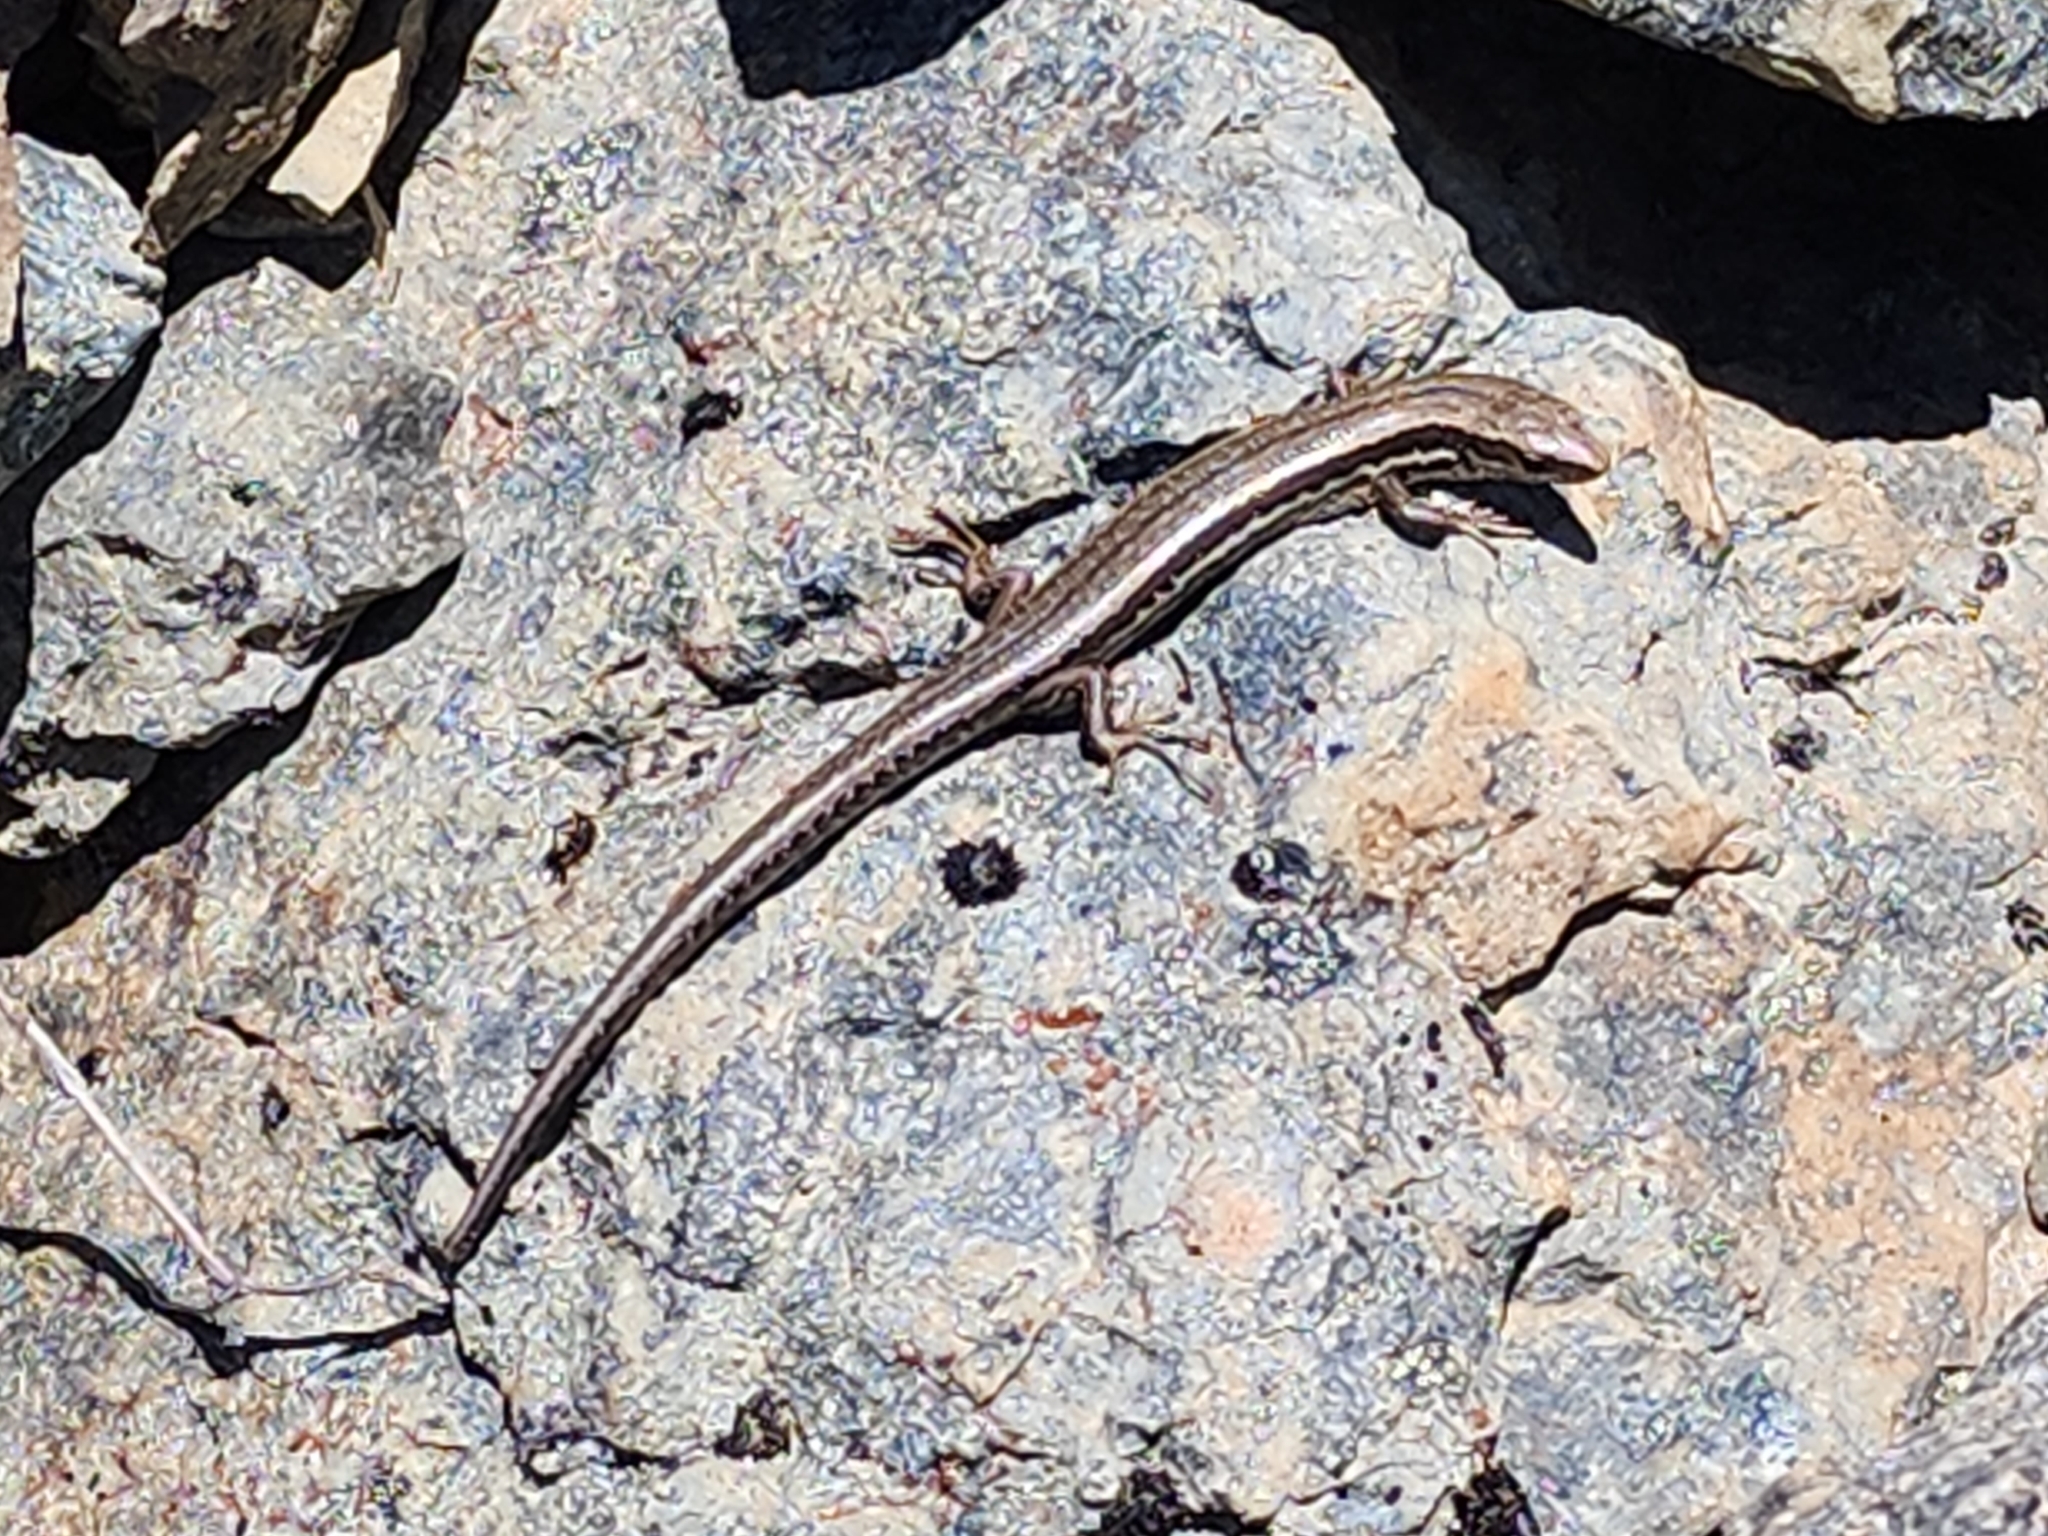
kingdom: Animalia
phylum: Chordata
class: Squamata
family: Scincidae
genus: Oligosoma
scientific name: Oligosoma polychroma
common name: Common new zealand skink
